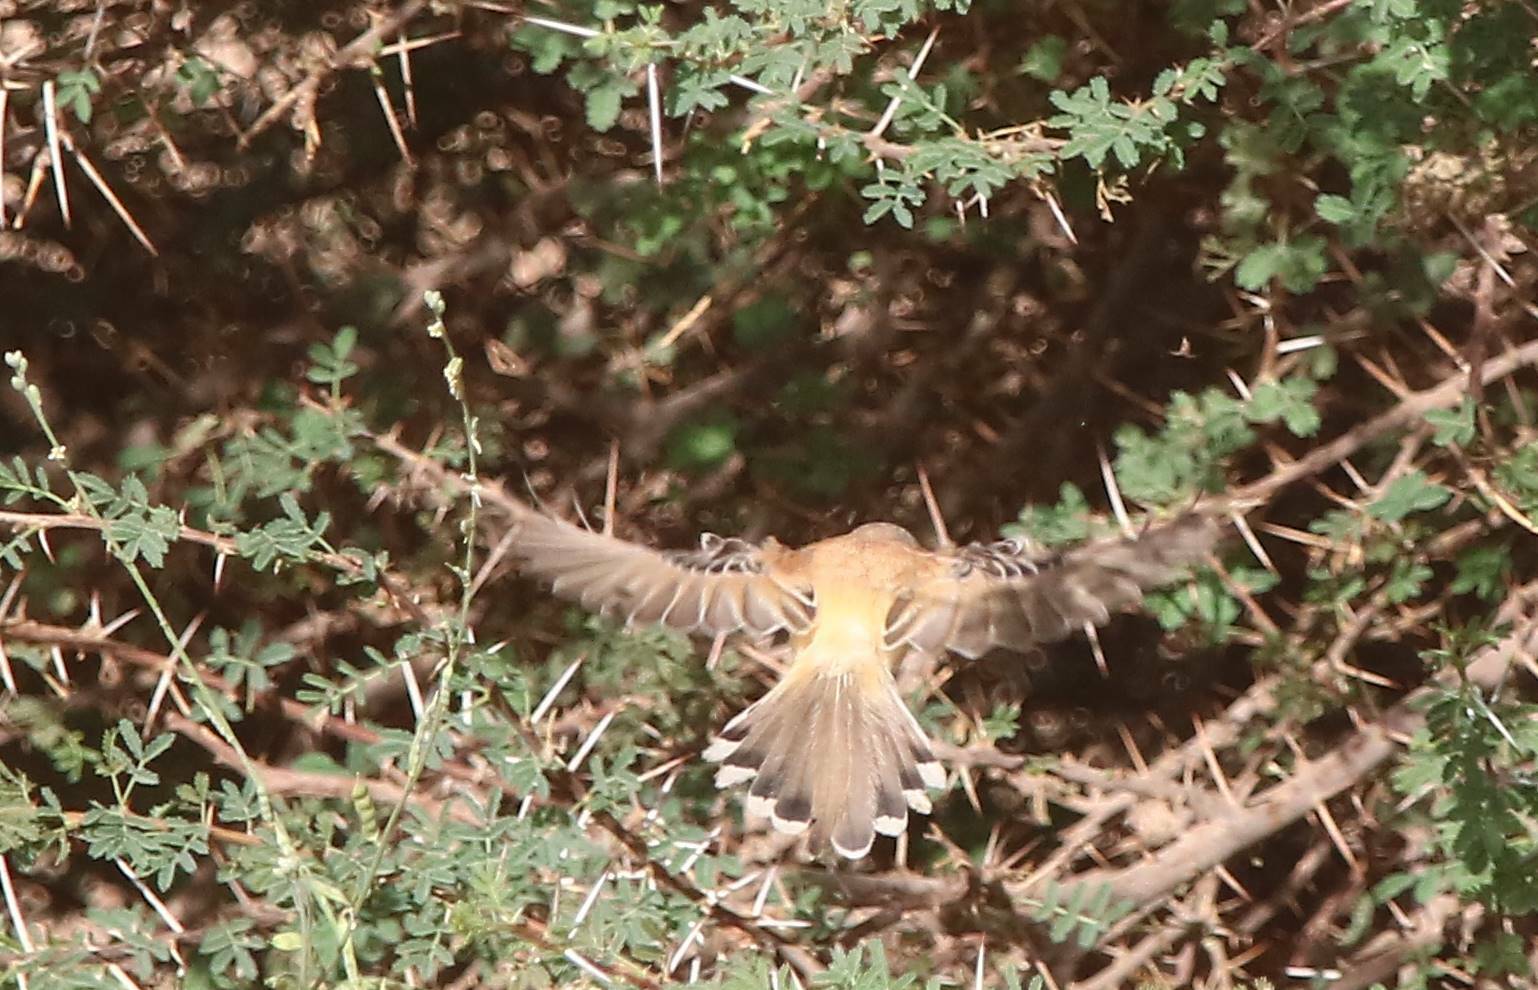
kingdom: Animalia
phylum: Chordata
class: Aves
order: Passeriformes
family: Cisticolidae
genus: Spiloptila
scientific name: Spiloptila clamans
